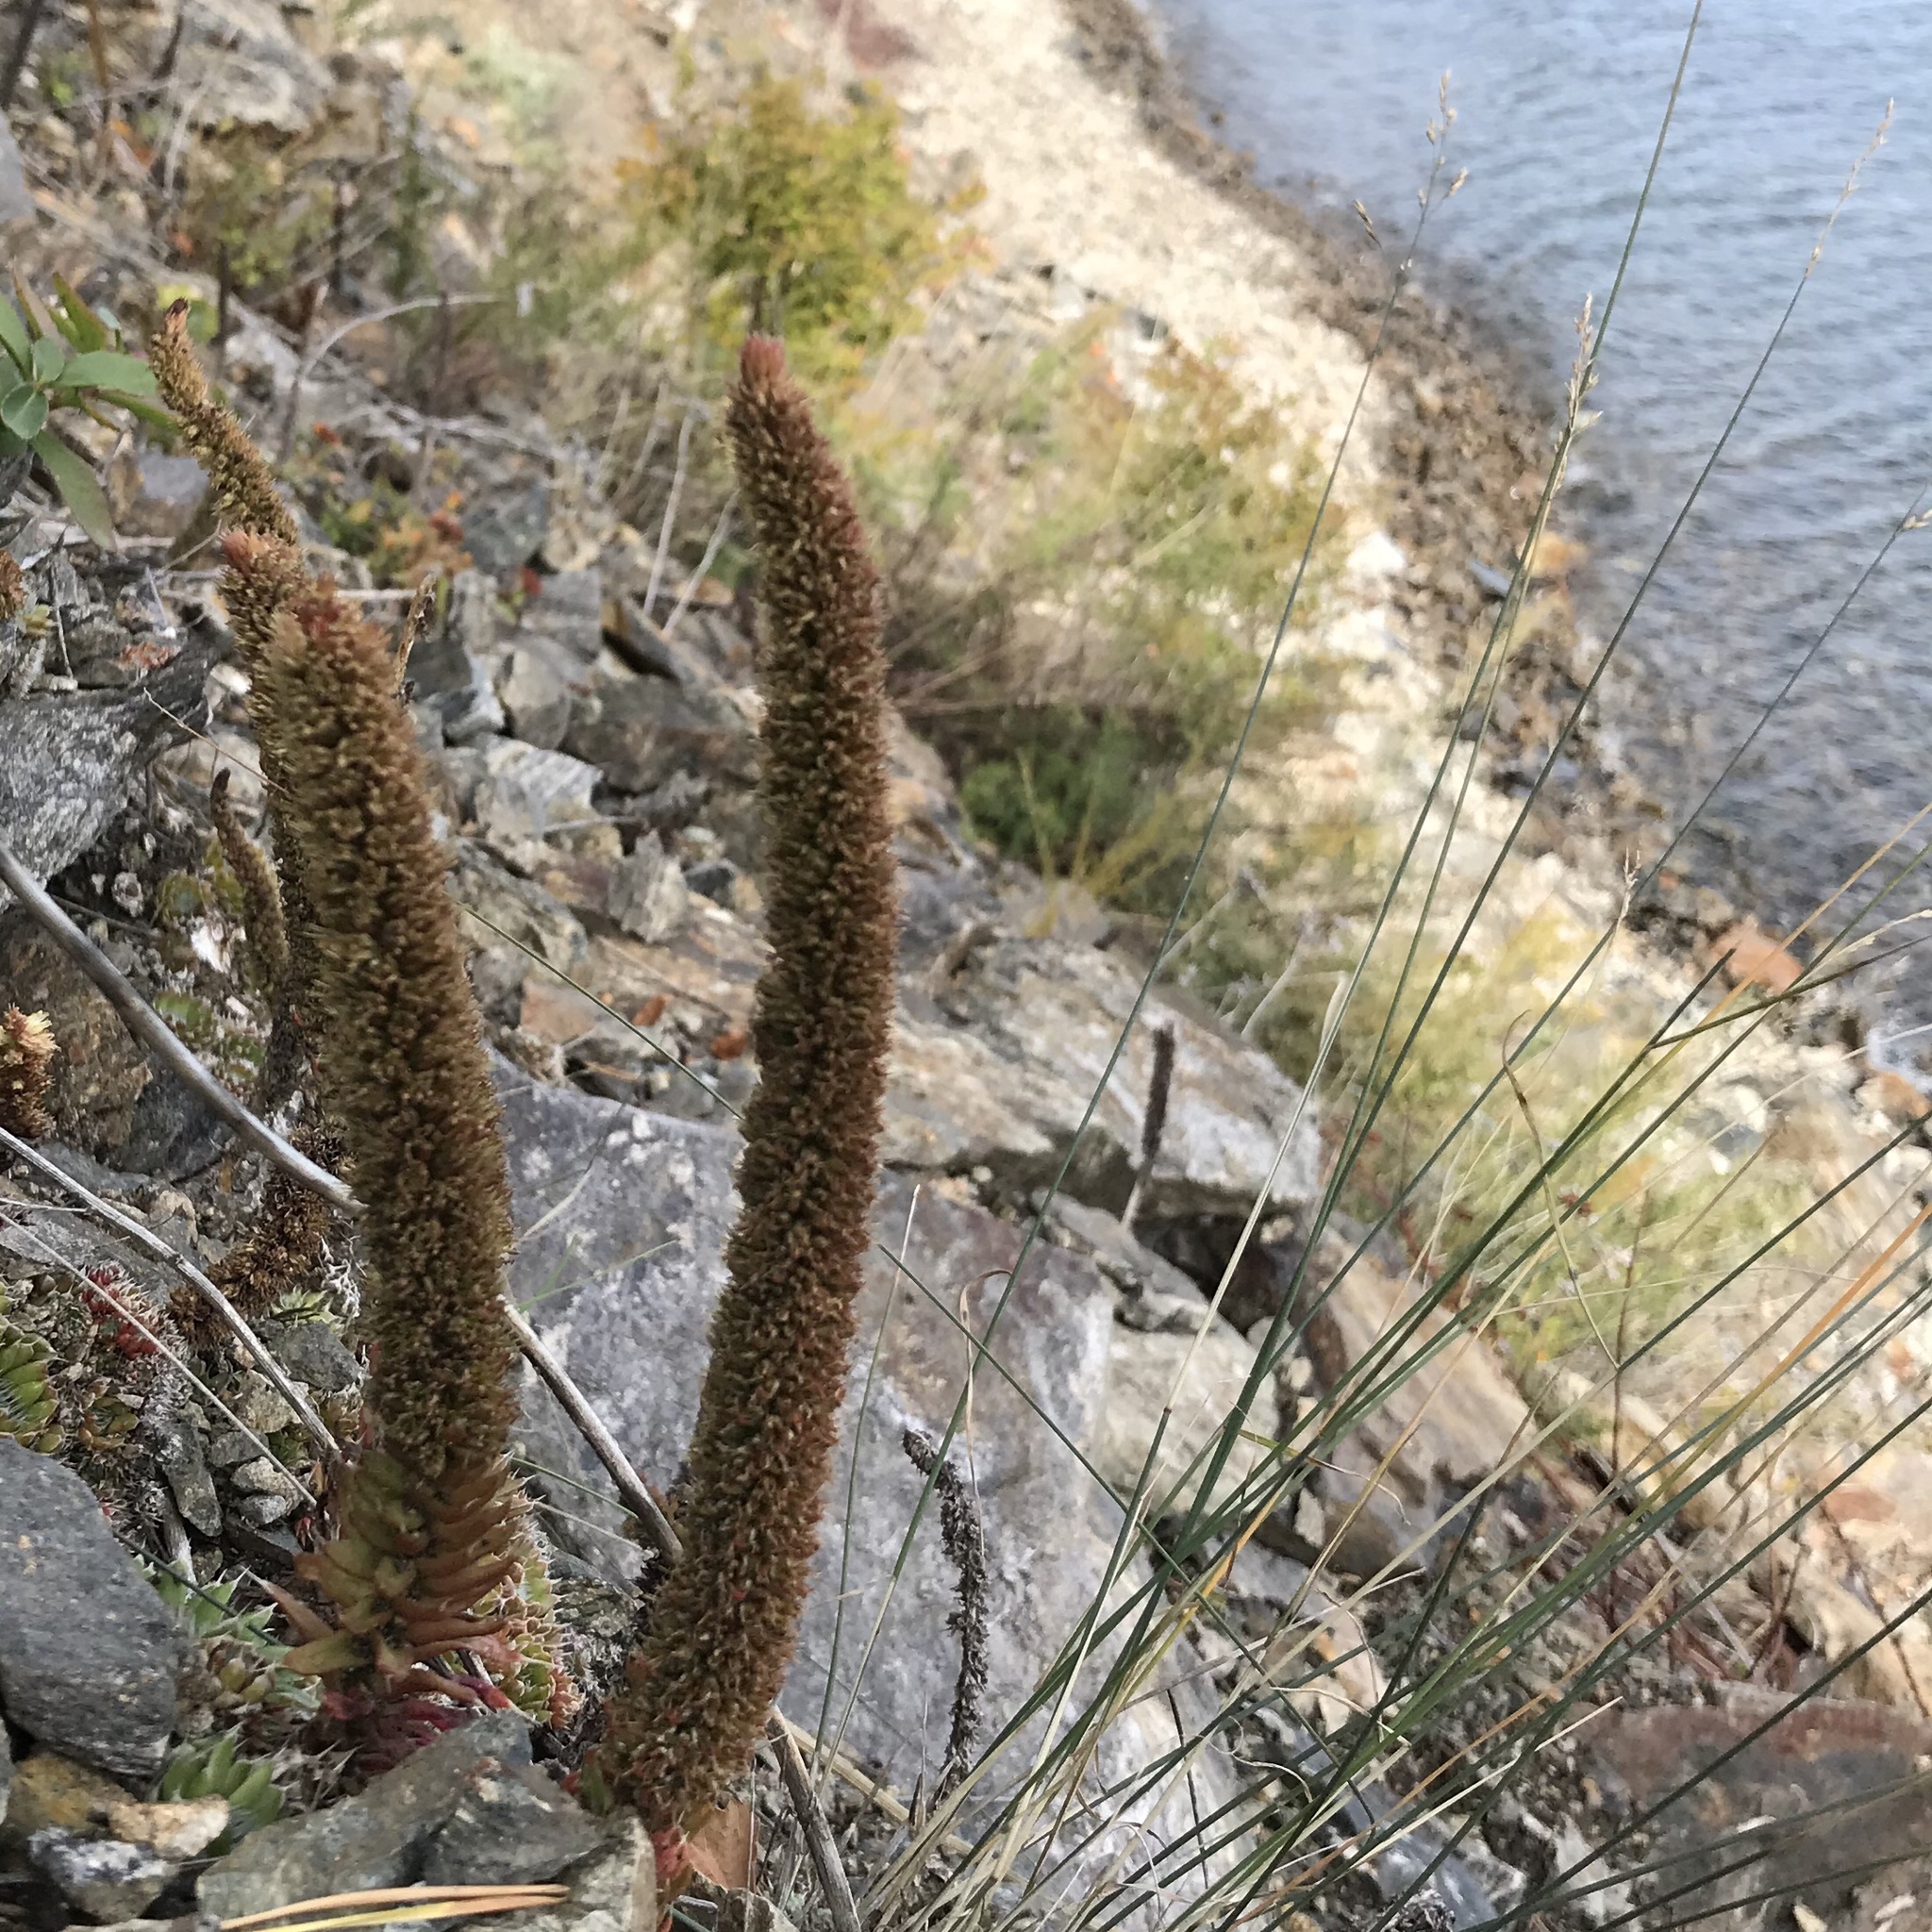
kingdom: Plantae
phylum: Tracheophyta
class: Magnoliopsida
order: Saxifragales
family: Crassulaceae
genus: Orostachys
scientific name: Orostachys spinosa
